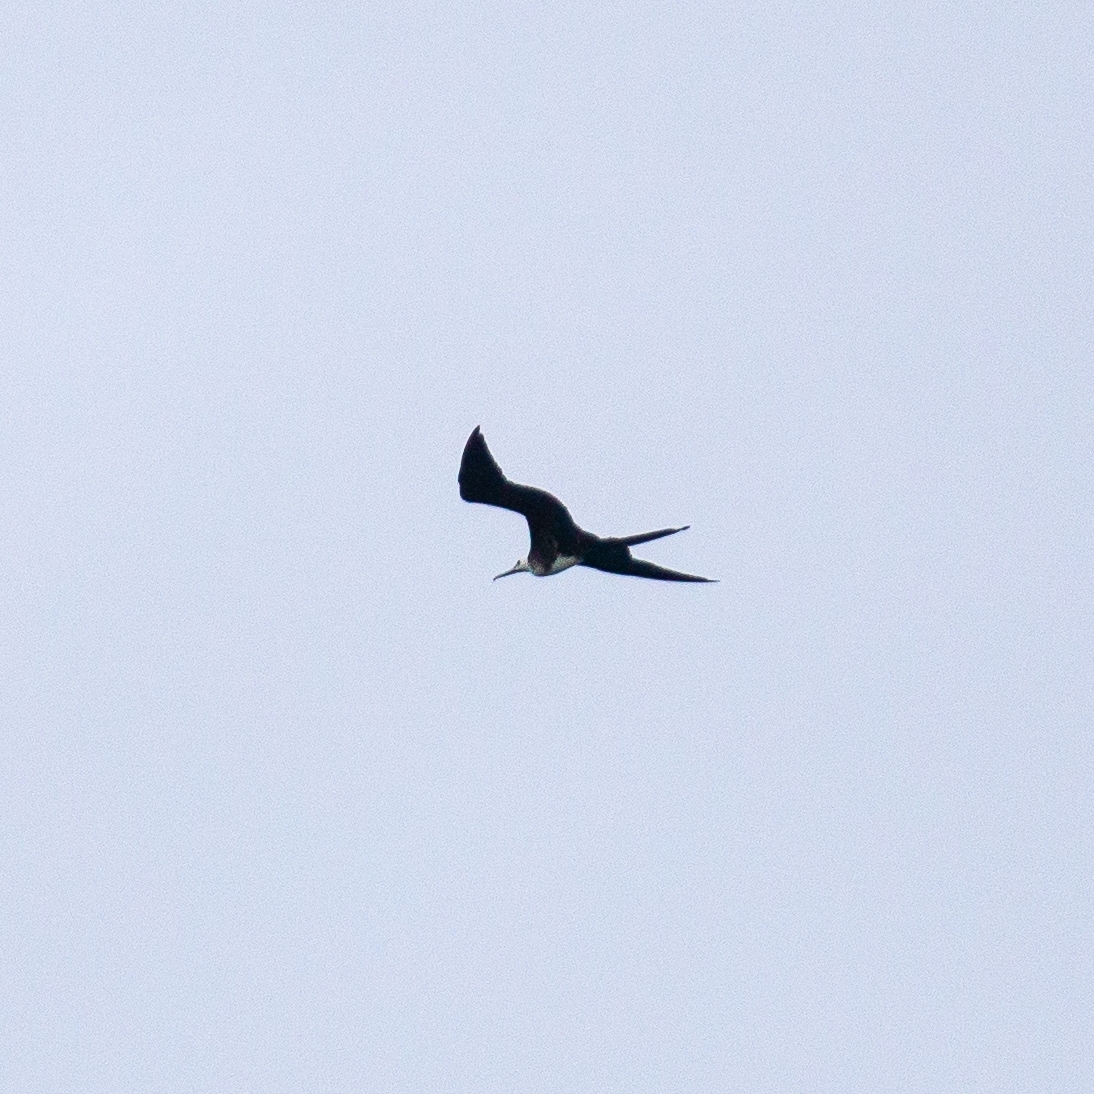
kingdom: Animalia
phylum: Chordata
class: Aves
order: Suliformes
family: Fregatidae
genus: Fregata
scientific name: Fregata magnificens
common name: Magnificent frigatebird
